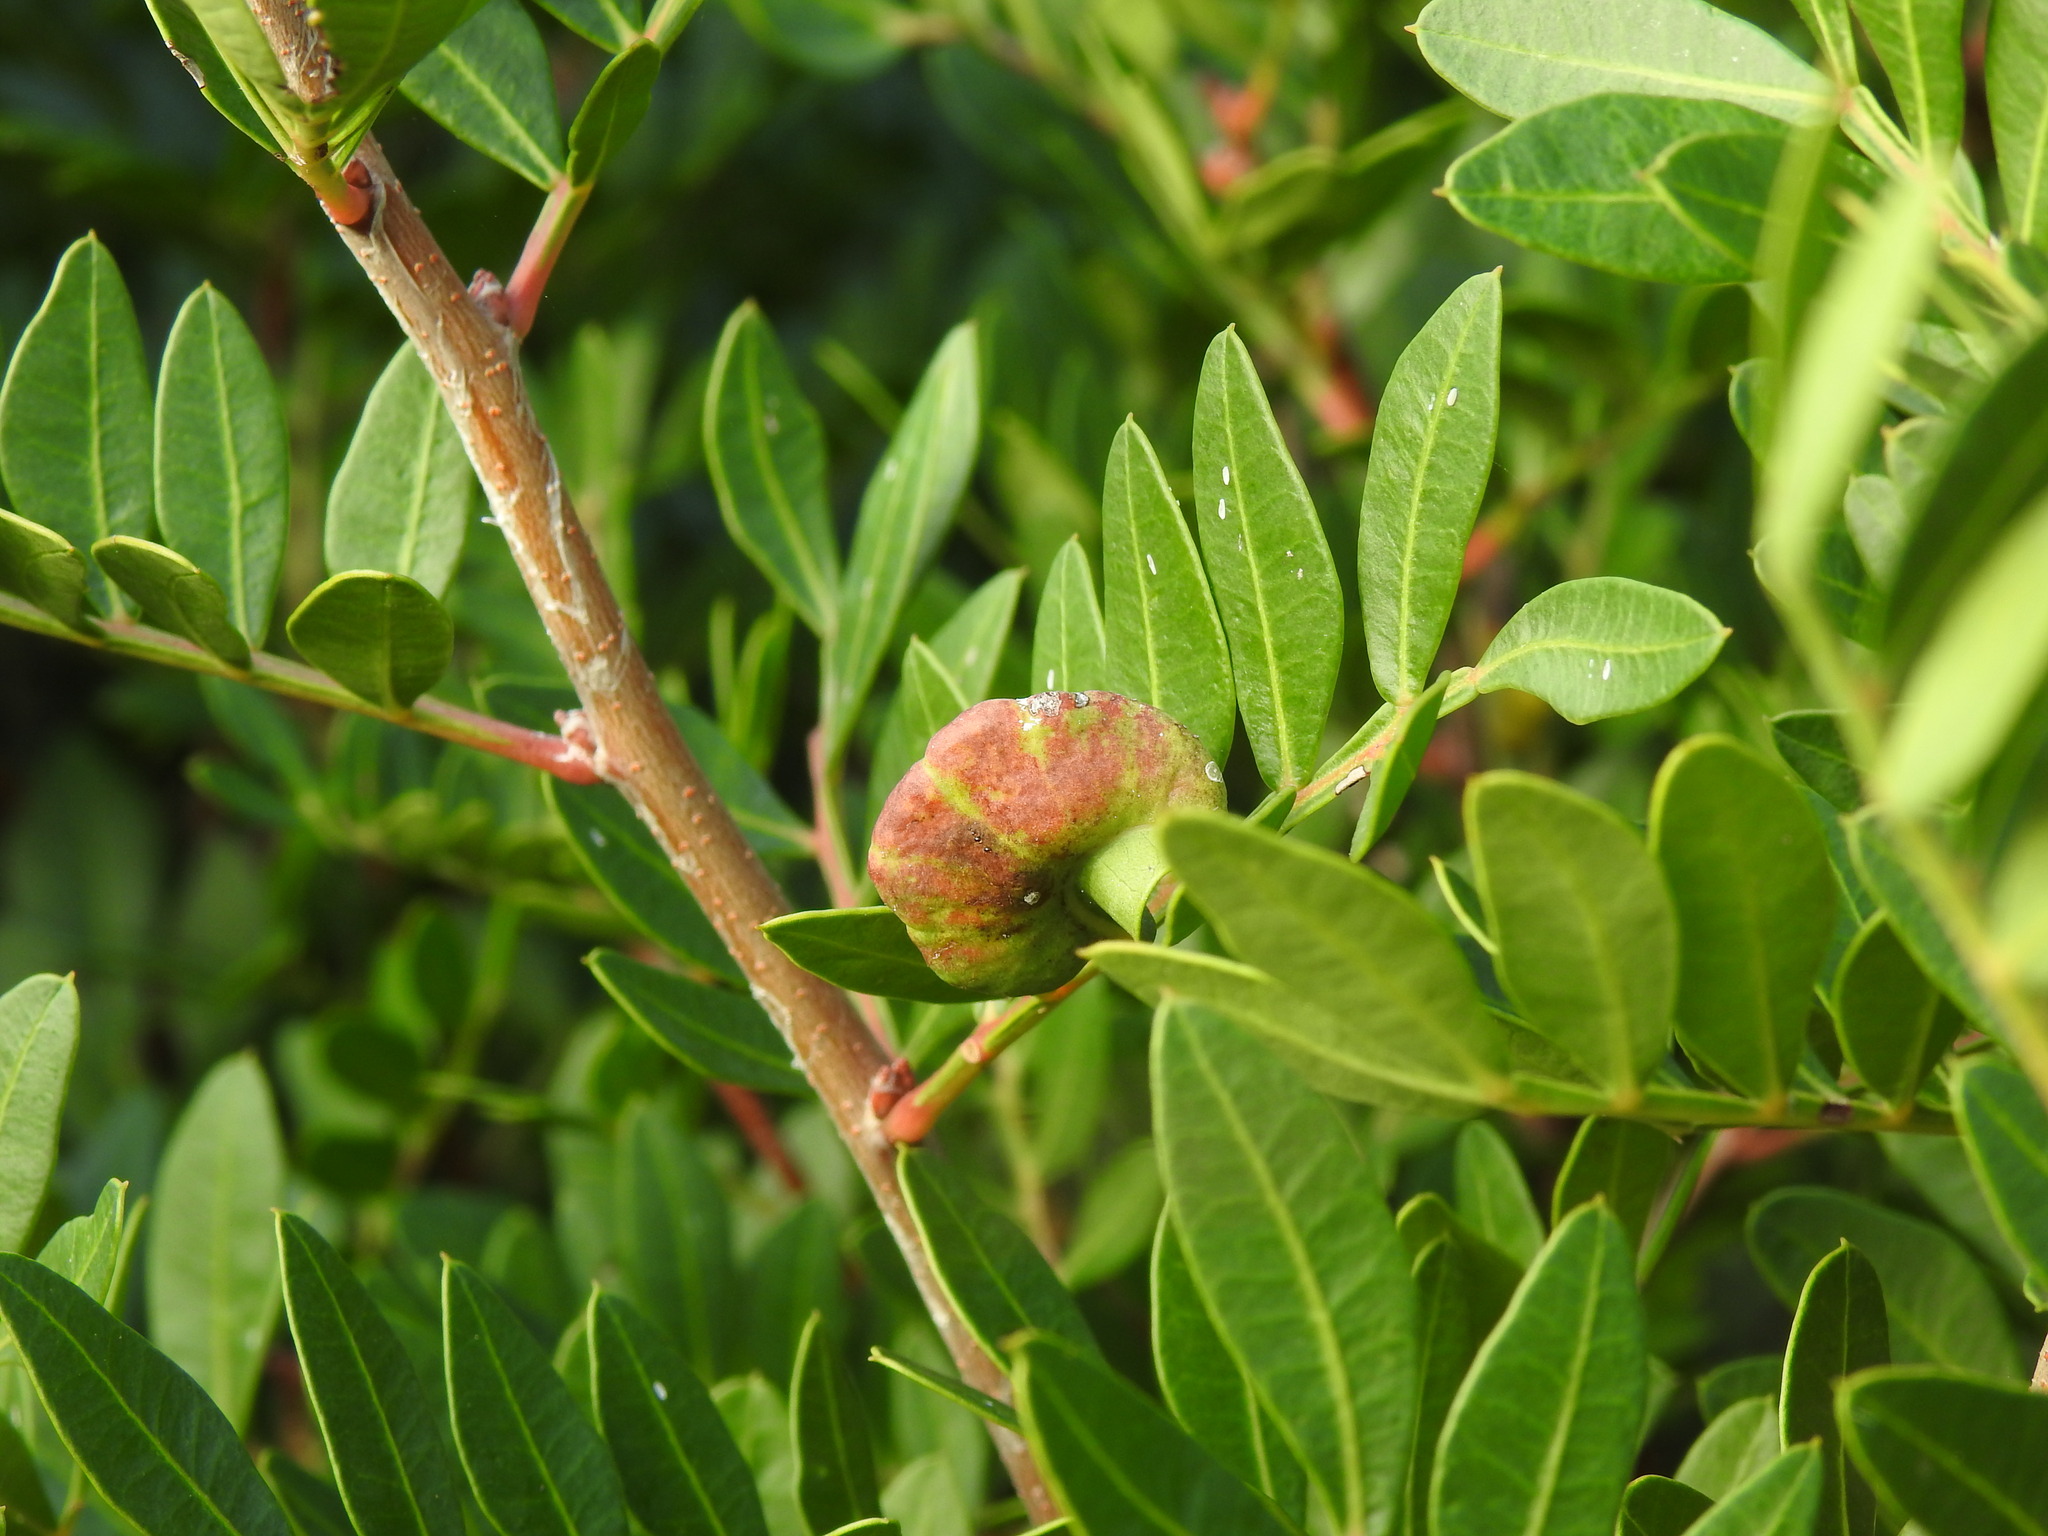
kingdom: Animalia
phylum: Arthropoda
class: Insecta
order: Hemiptera
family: Aphididae
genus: Aploneura
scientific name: Aploneura lentisci
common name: Mealy grass root aphid
